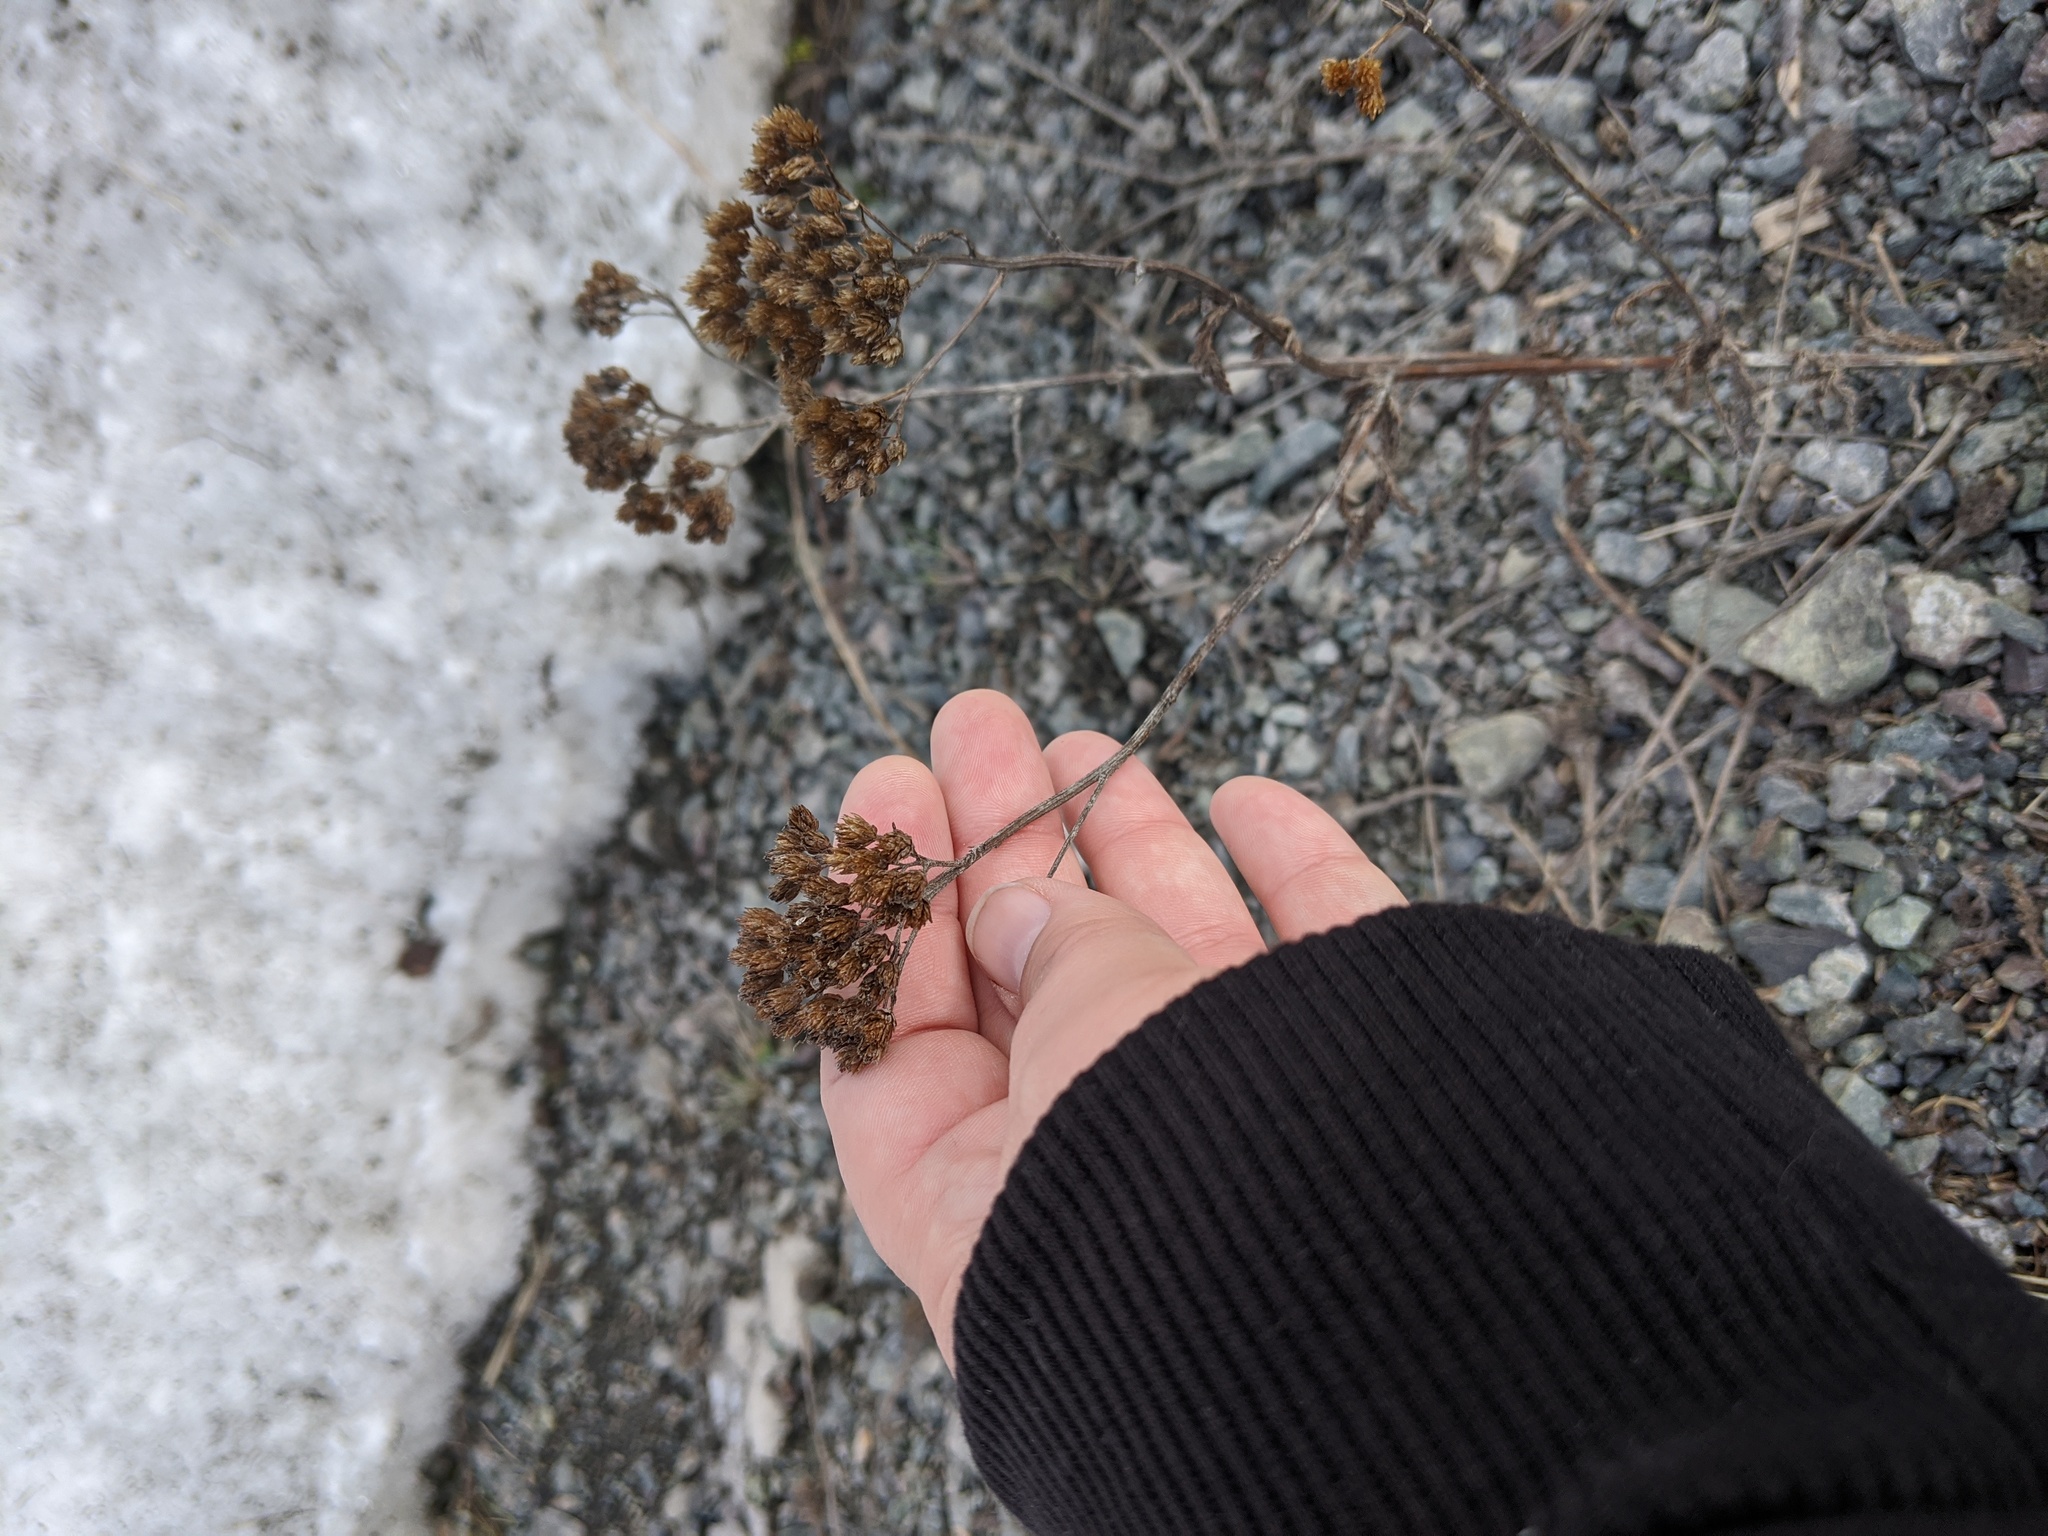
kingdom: Plantae
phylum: Tracheophyta
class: Magnoliopsida
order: Asterales
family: Asteraceae
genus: Achillea
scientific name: Achillea millefolium
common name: Yarrow
